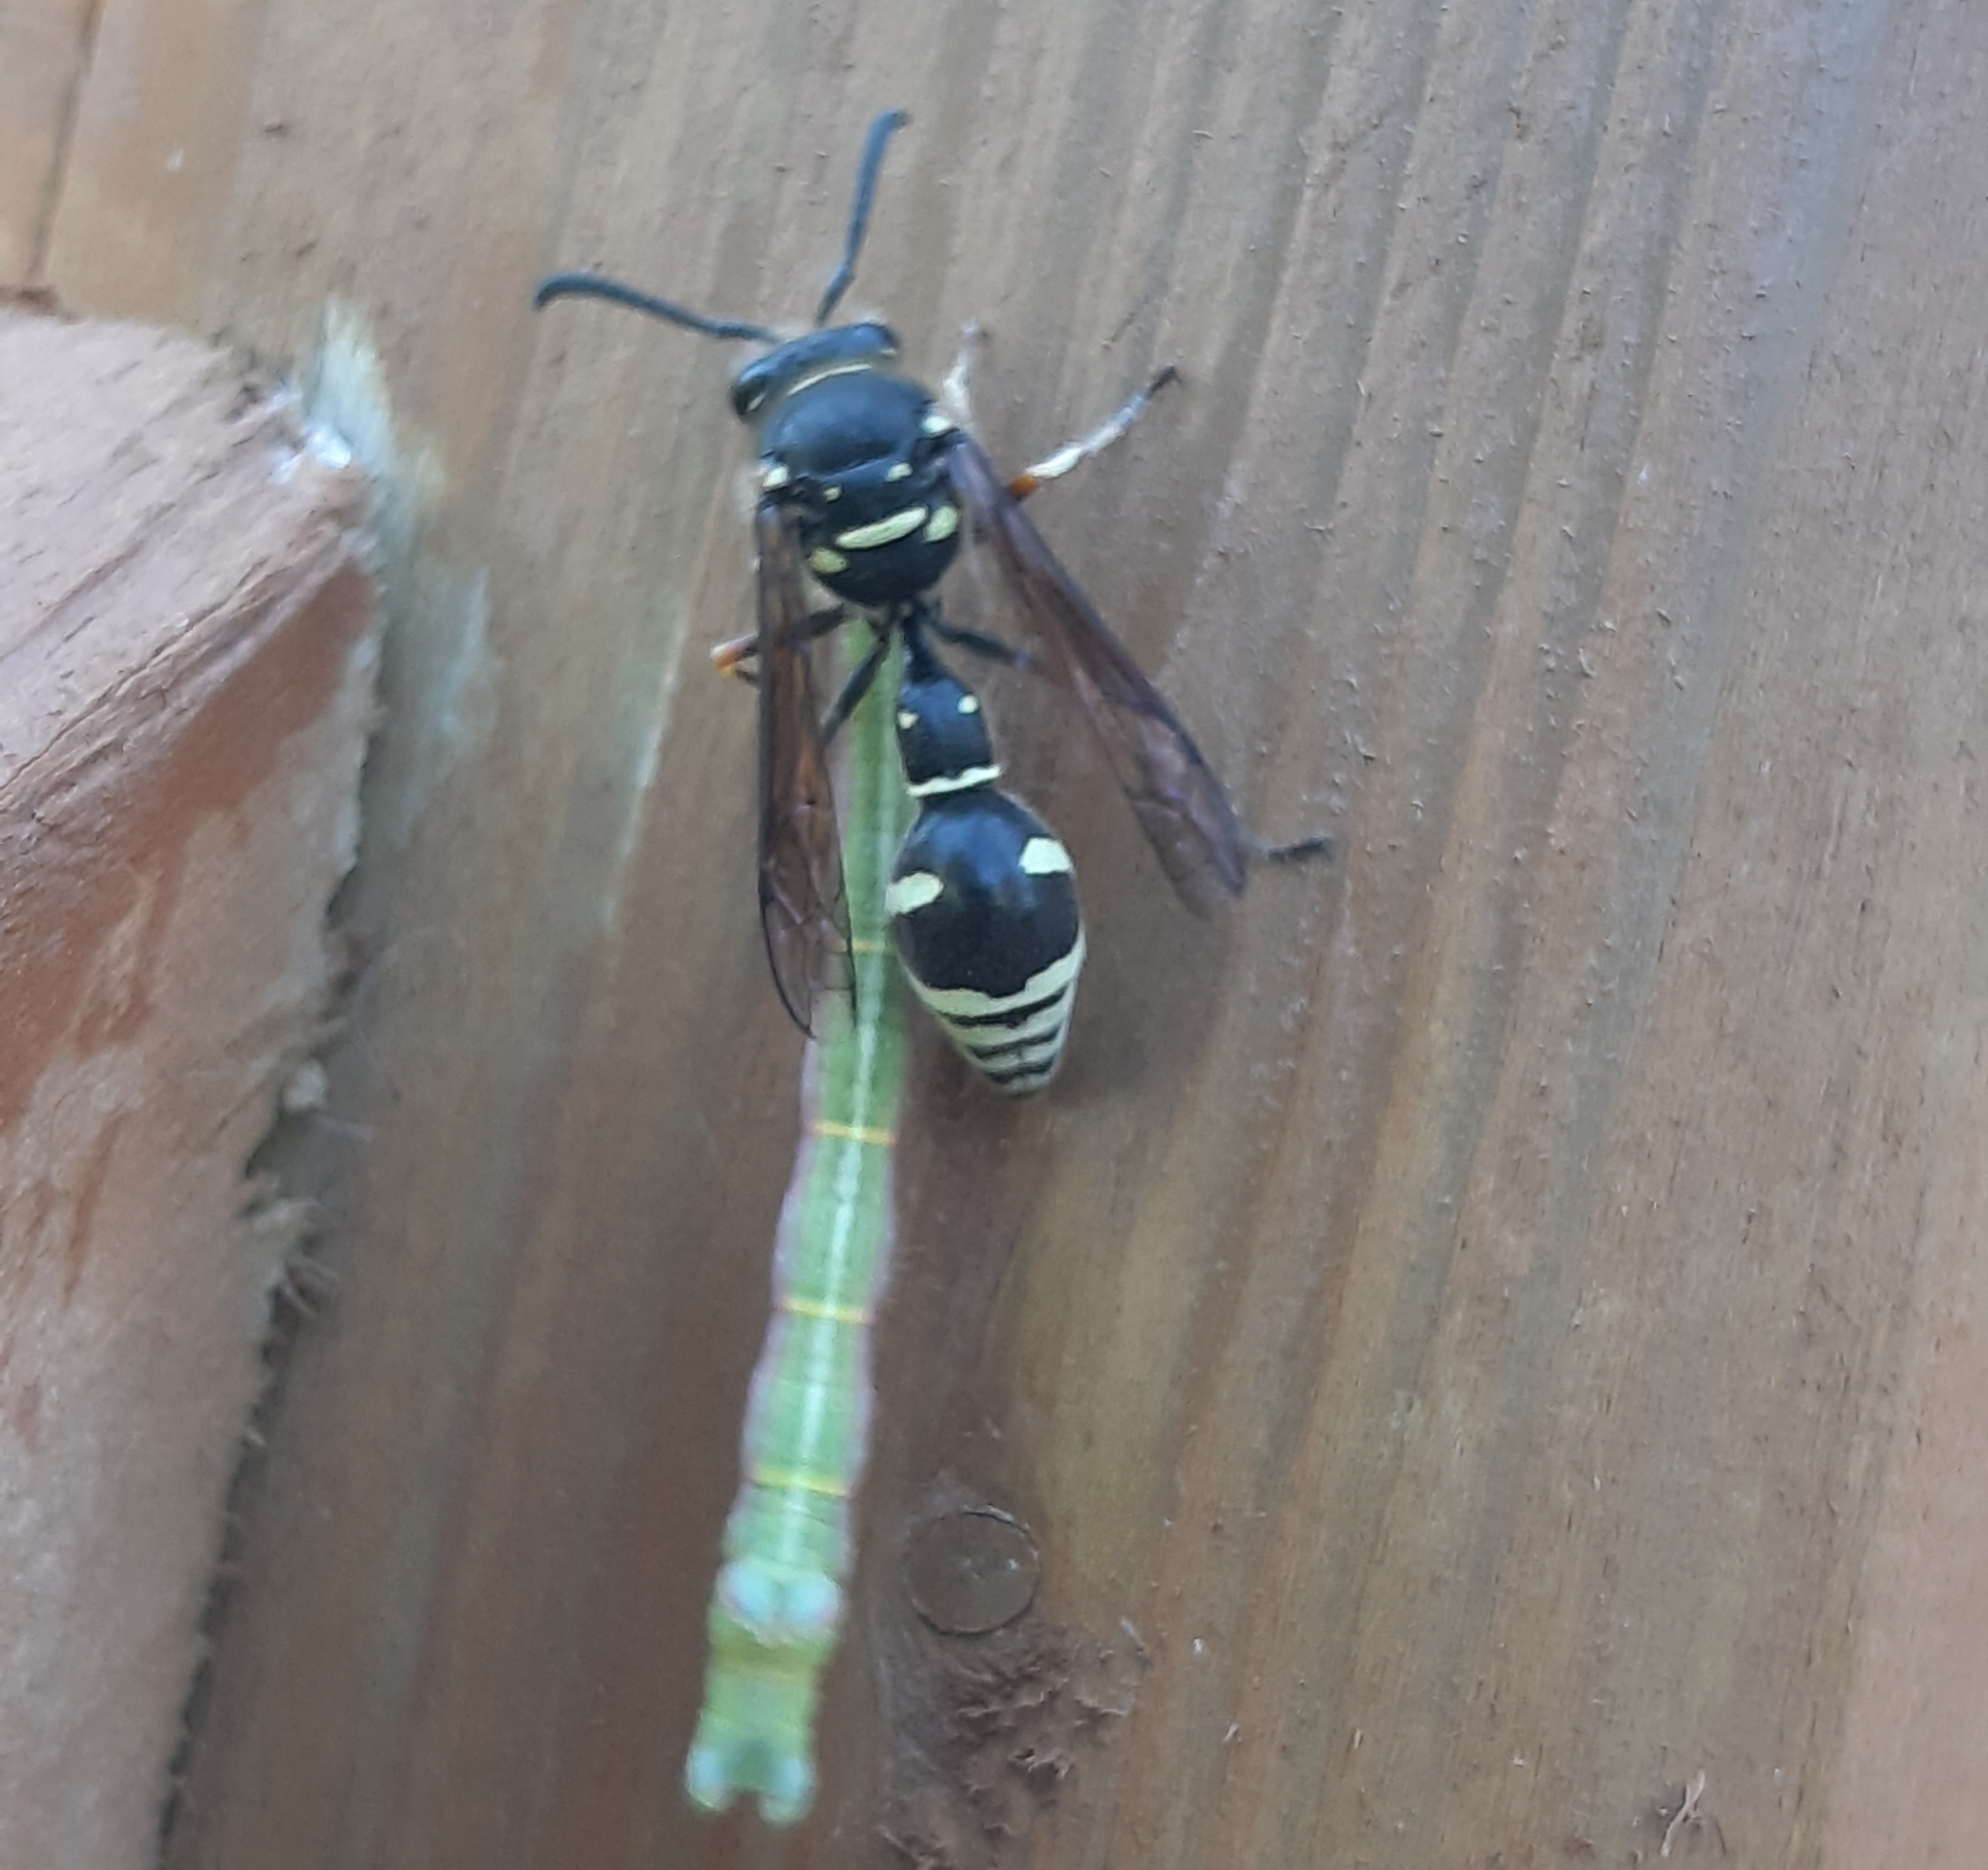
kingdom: Animalia
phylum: Arthropoda
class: Insecta
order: Hymenoptera
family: Vespidae
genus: Eumenes
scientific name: Eumenes crucifera
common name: Cross potter wasp
